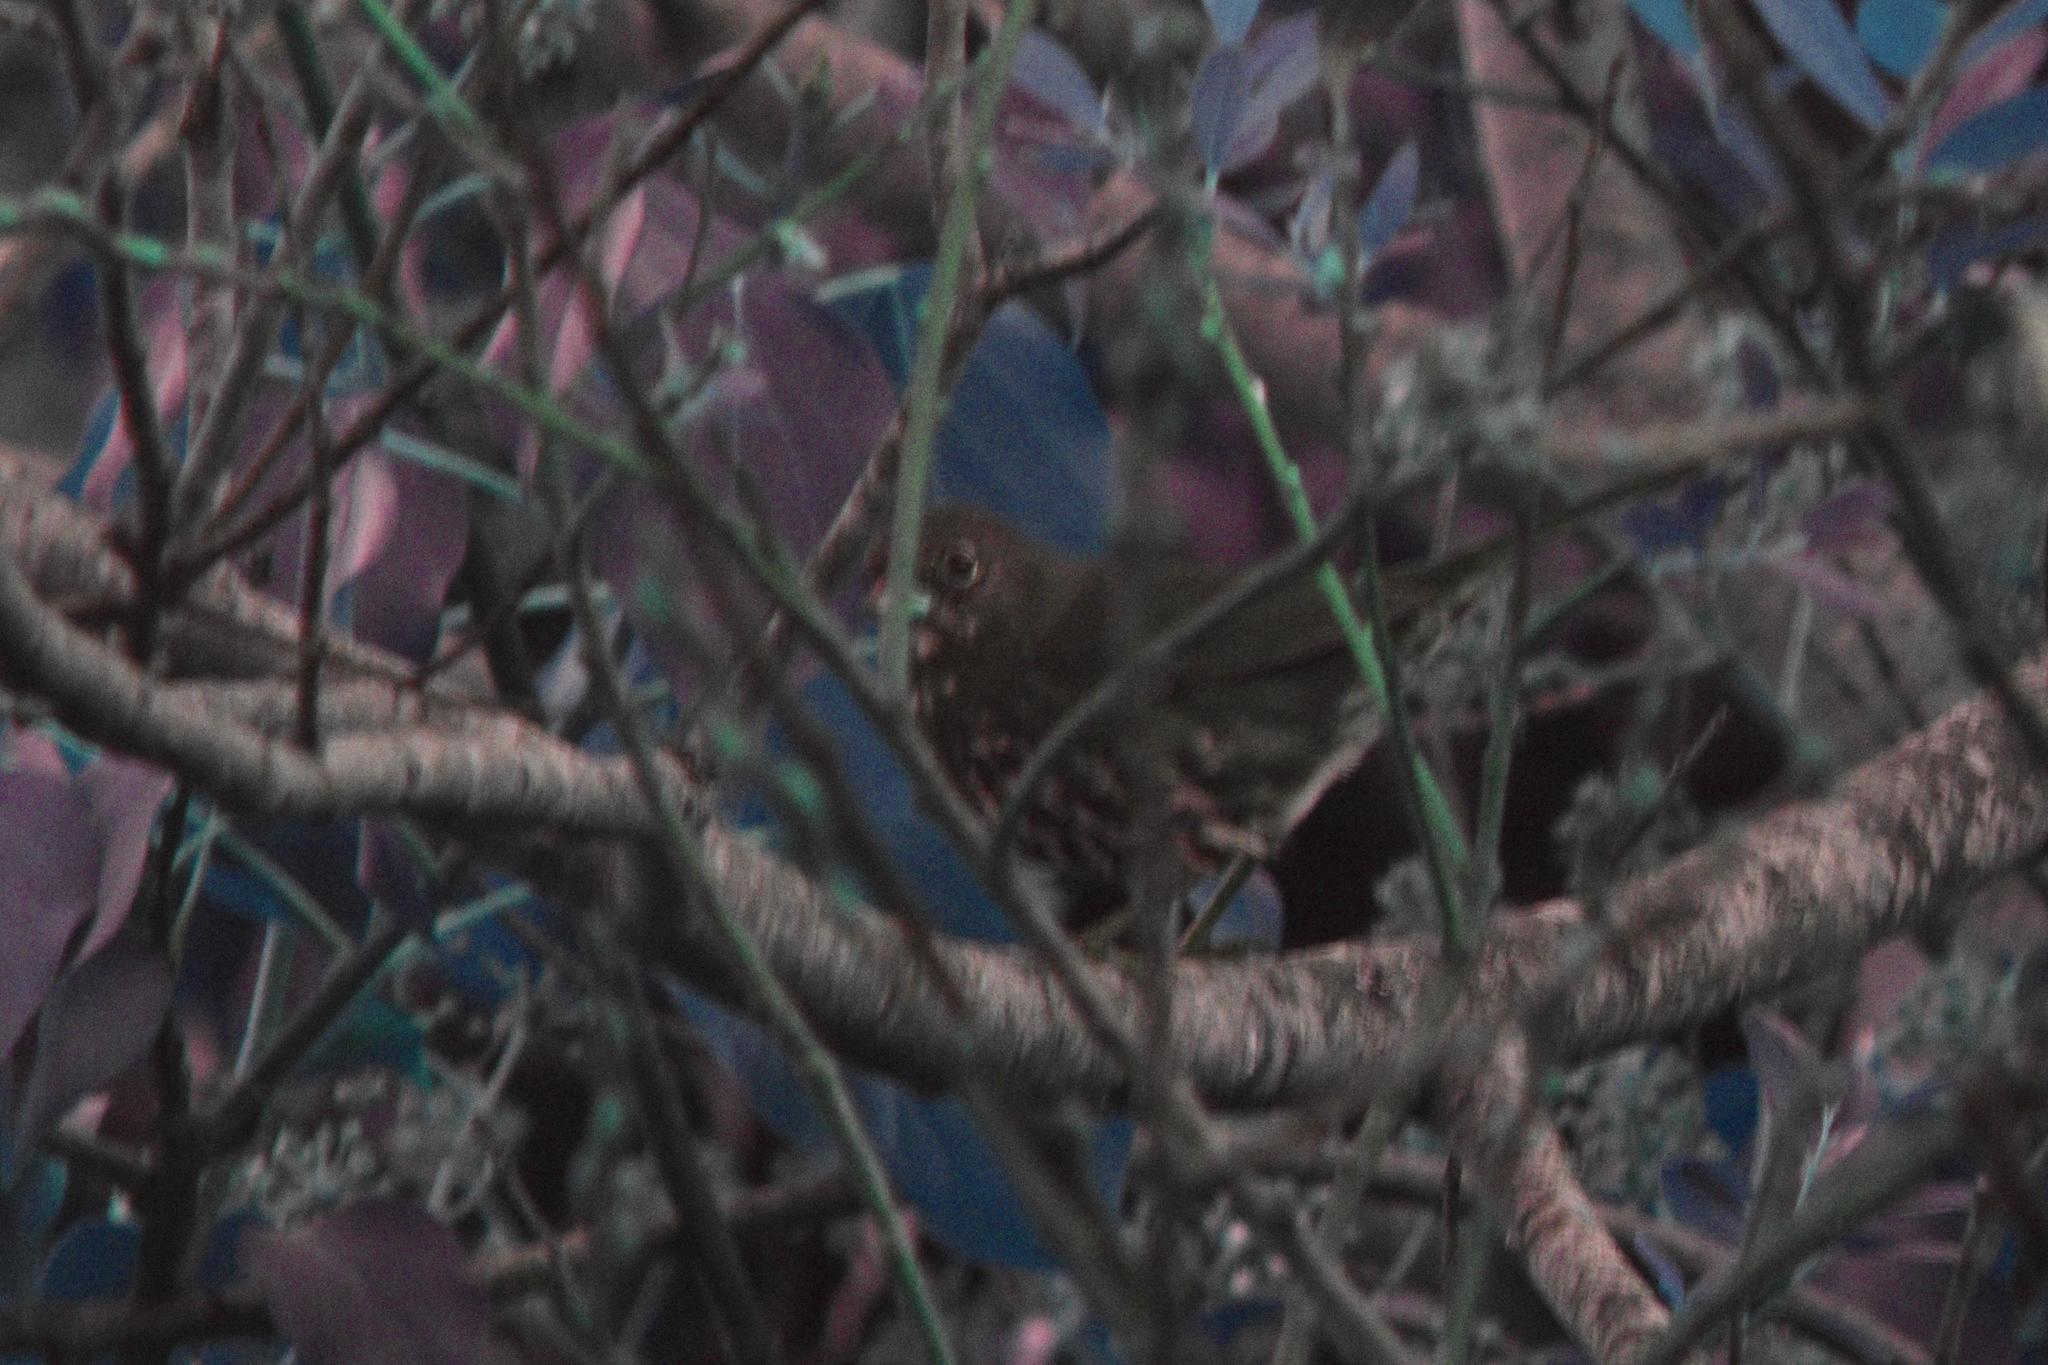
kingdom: Animalia
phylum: Chordata
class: Aves
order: Passeriformes
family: Passerellidae
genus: Passerella
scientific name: Passerella iliaca
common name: Fox sparrow
